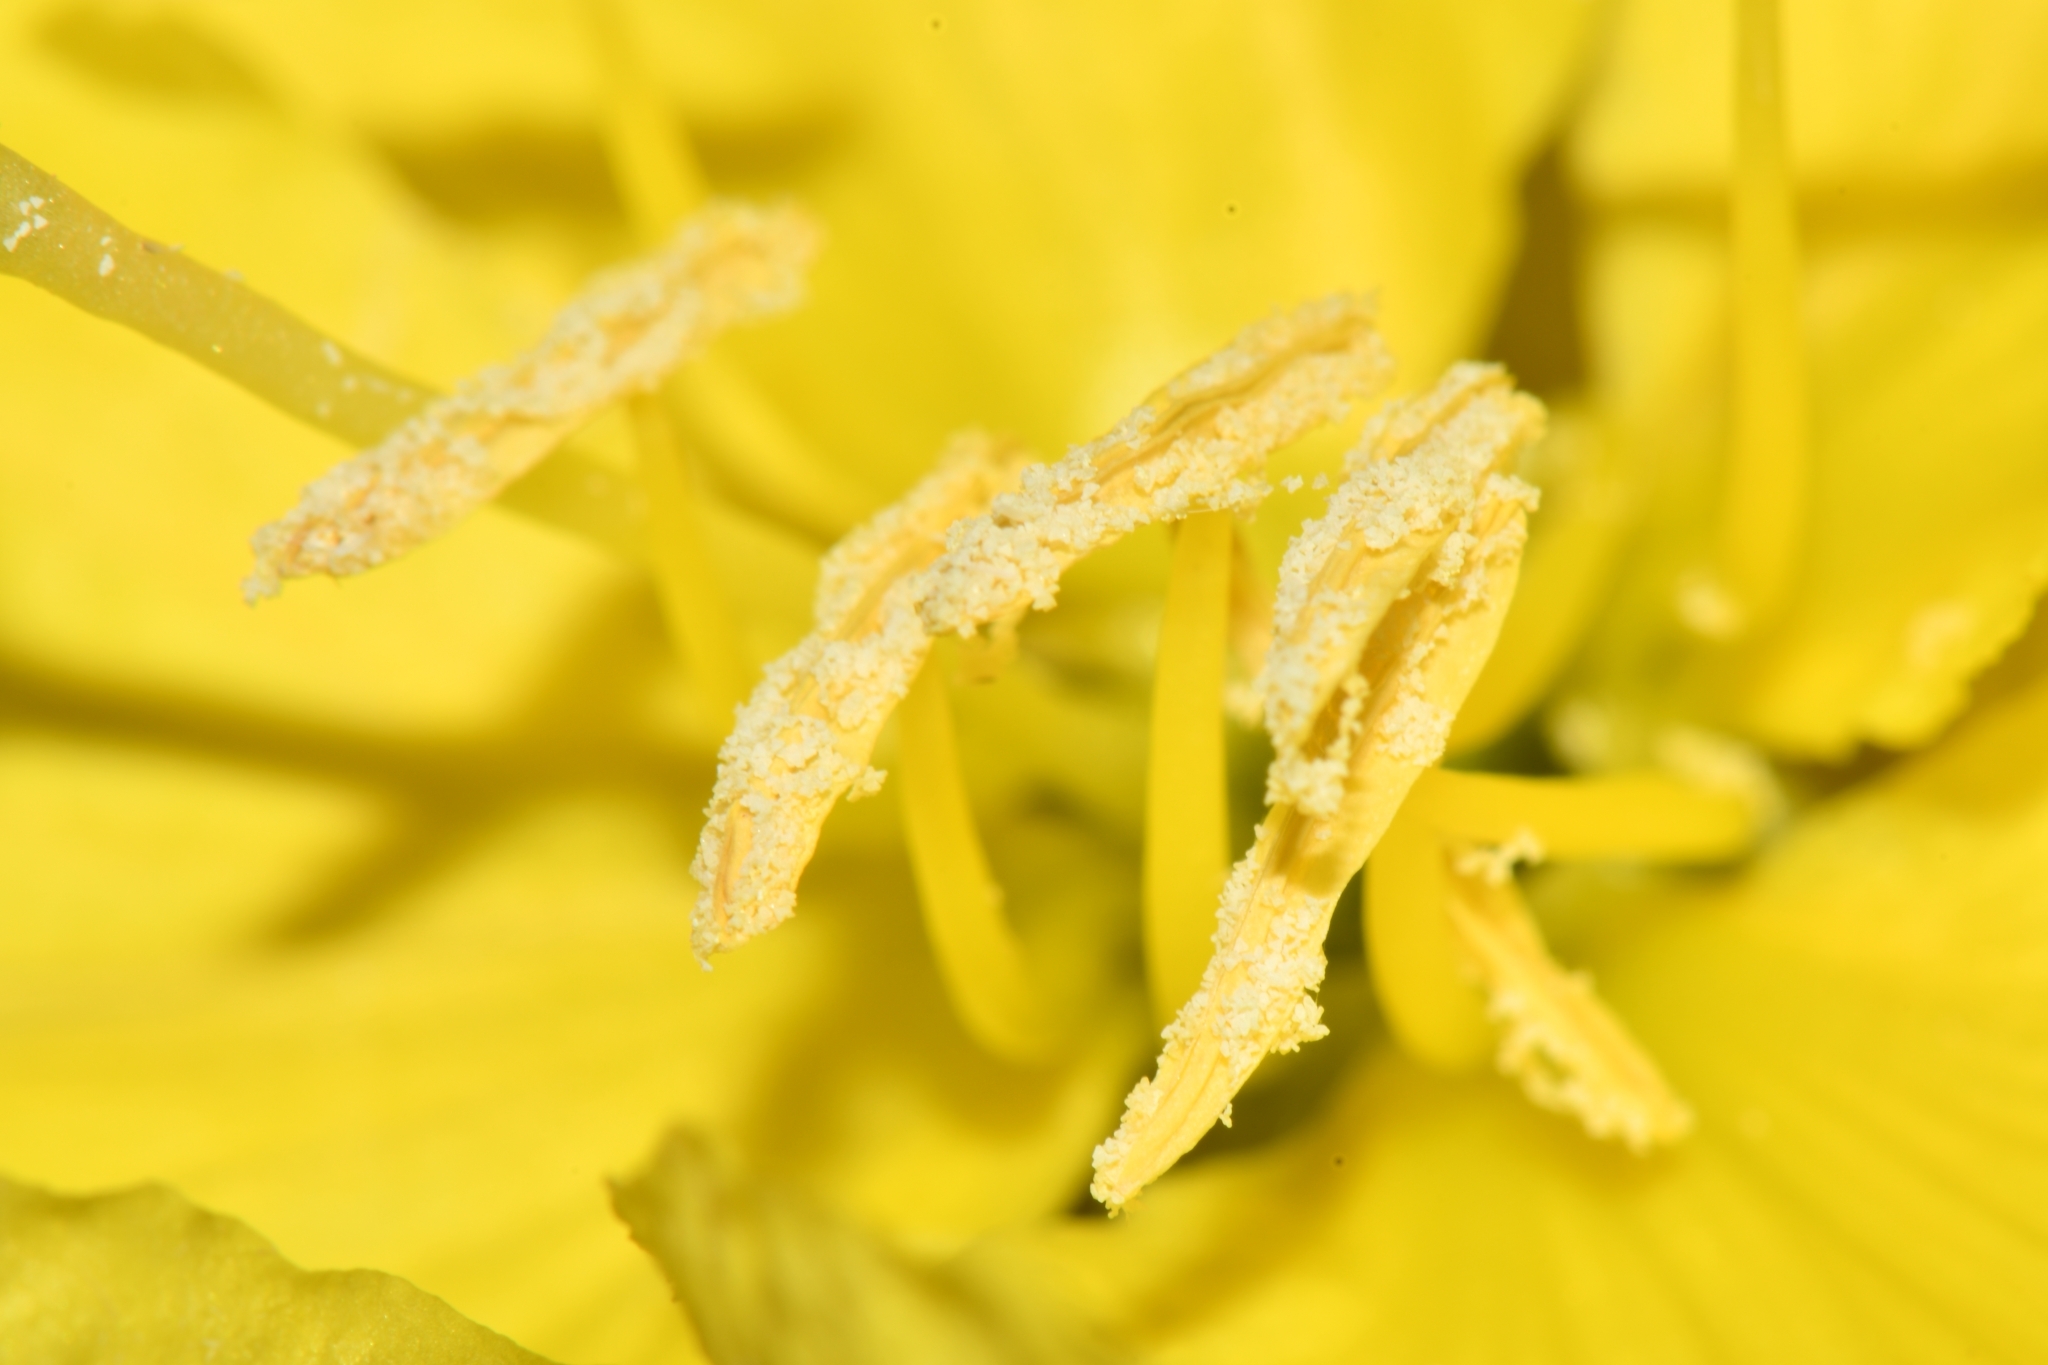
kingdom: Plantae
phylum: Tracheophyta
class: Magnoliopsida
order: Myrtales
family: Onagraceae
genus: Oenothera
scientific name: Oenothera primiveris
